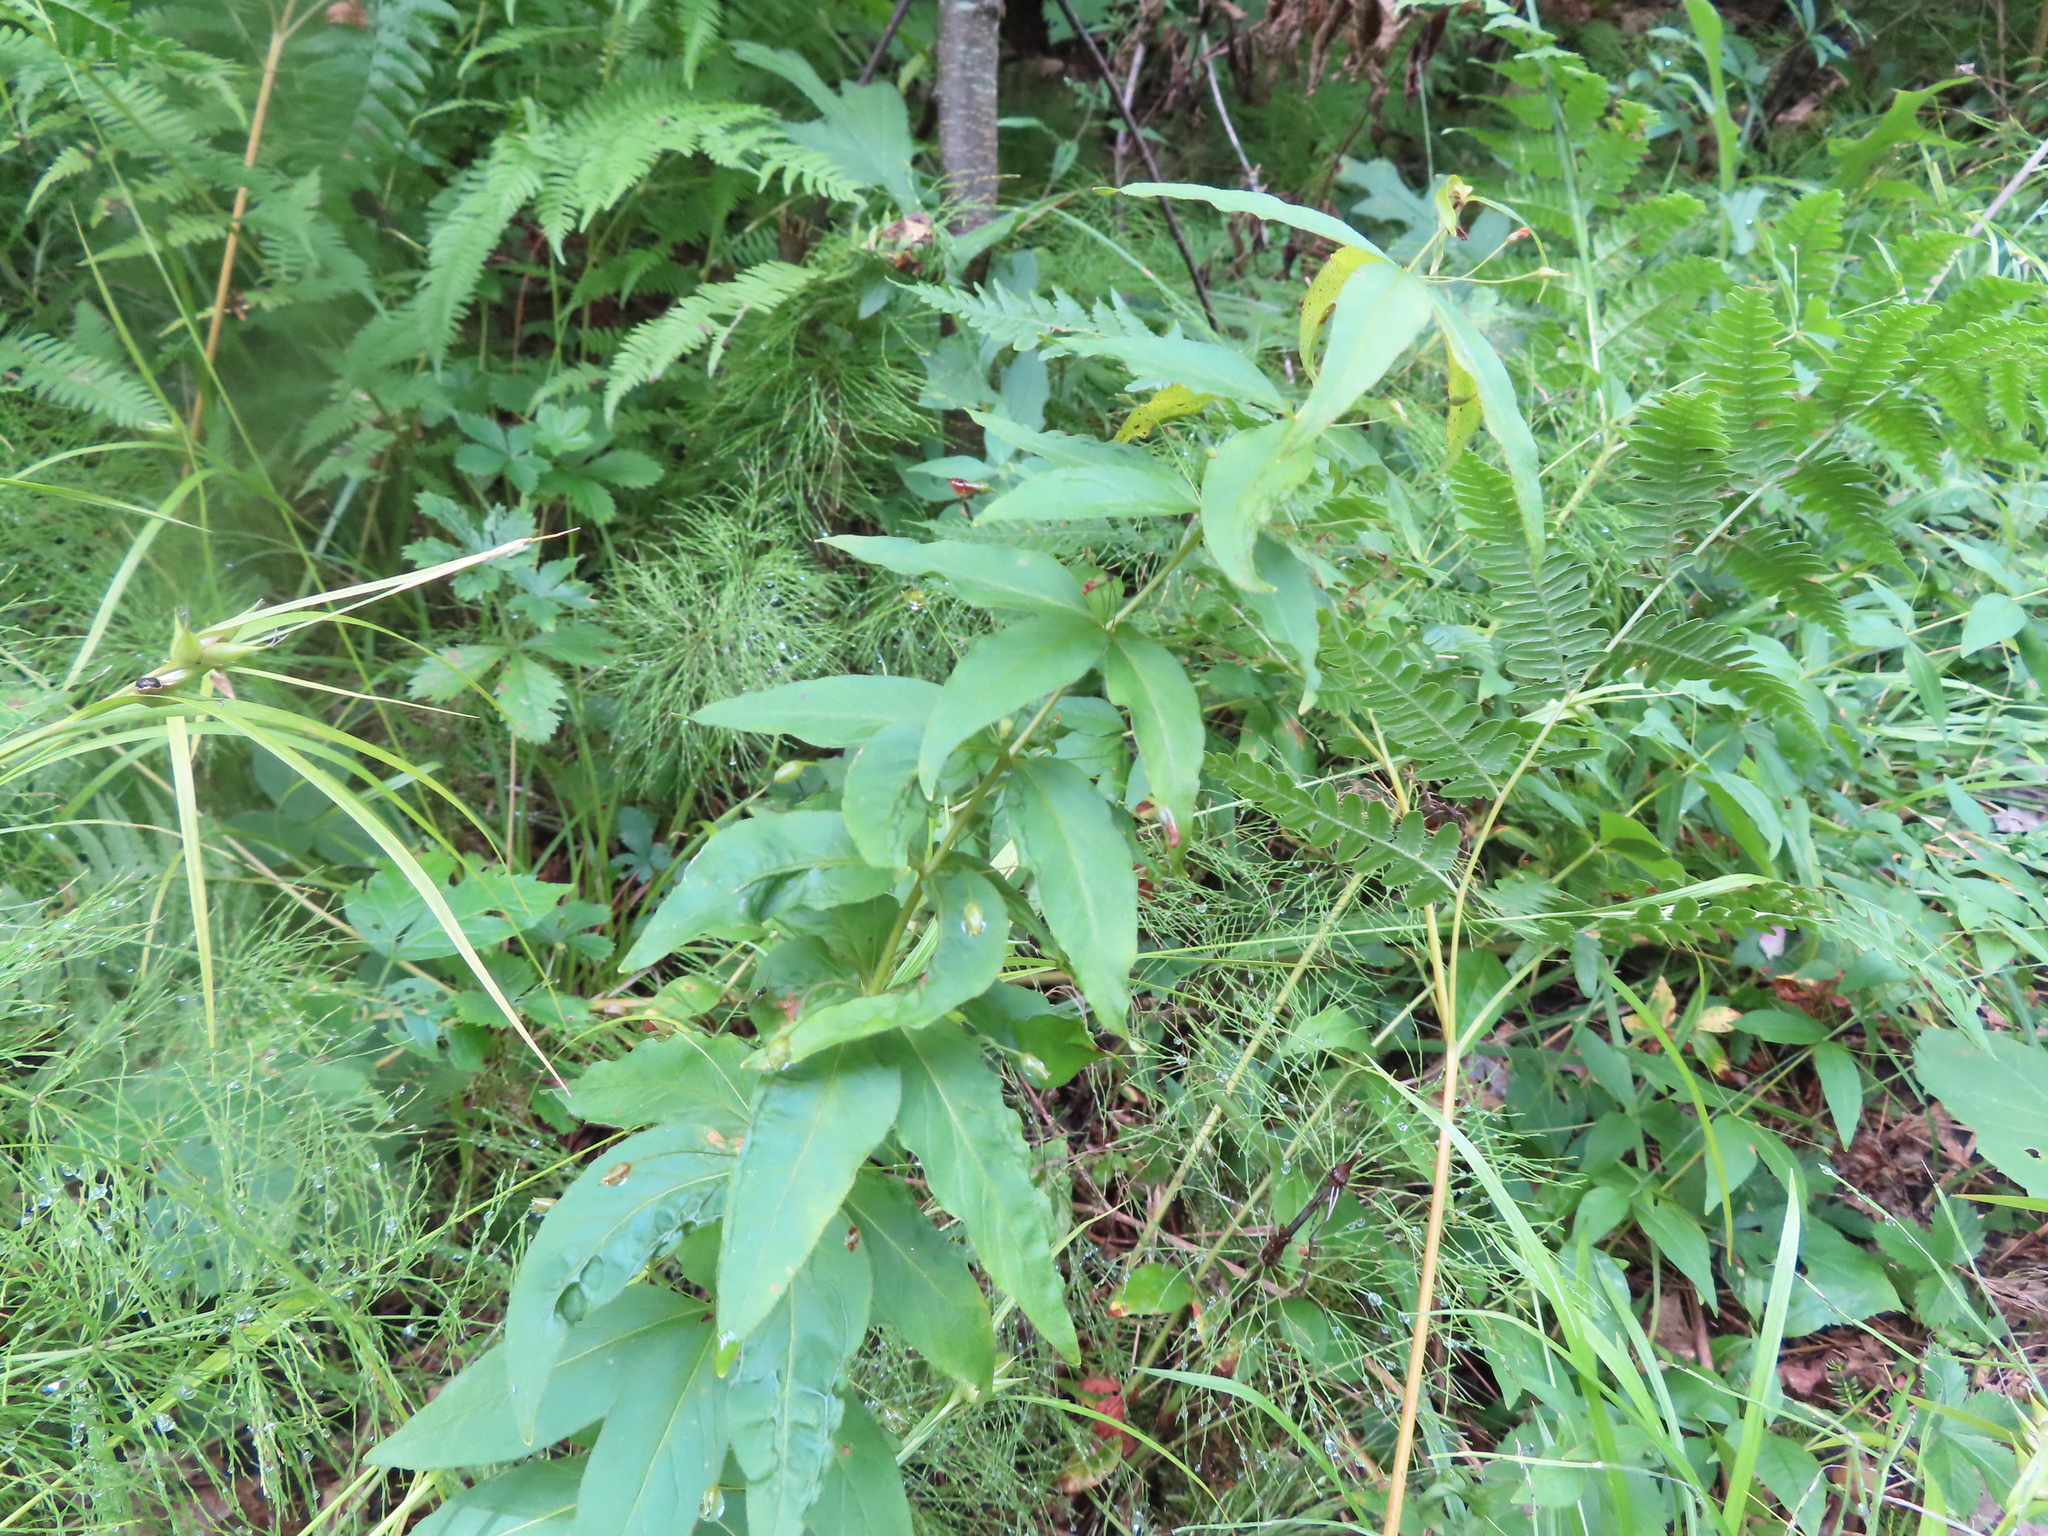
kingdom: Plantae
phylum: Tracheophyta
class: Magnoliopsida
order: Ericales
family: Primulaceae
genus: Lysimachia
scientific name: Lysimachia quadrifolia
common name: Whorled loosestrife
